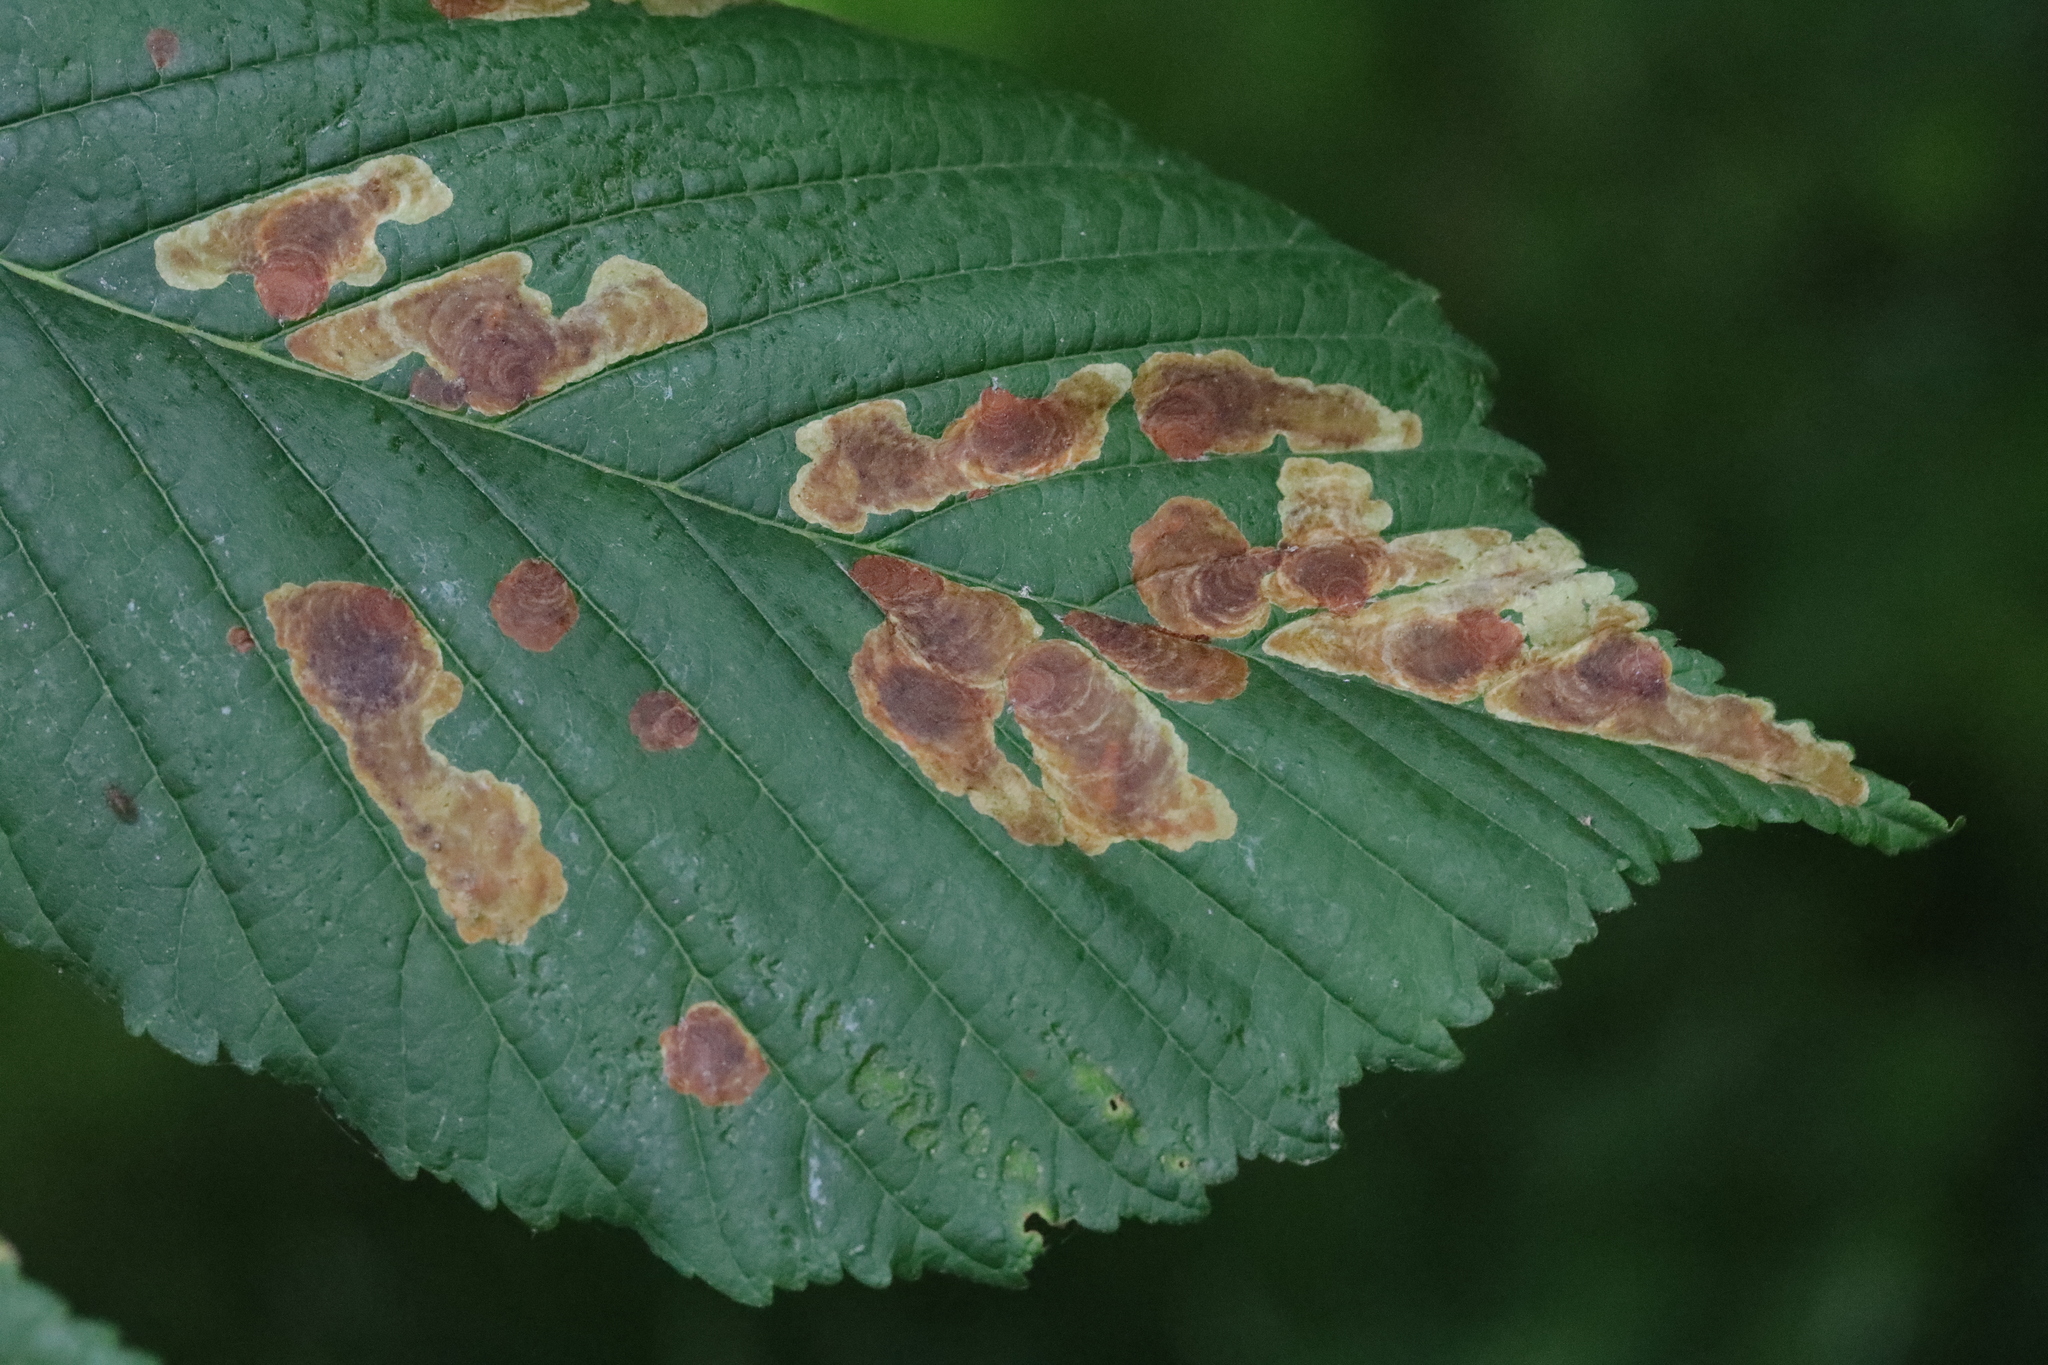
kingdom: Animalia
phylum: Arthropoda
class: Insecta
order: Lepidoptera
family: Gracillariidae
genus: Cameraria
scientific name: Cameraria ohridella
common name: Horse-chestnut leaf-miner
